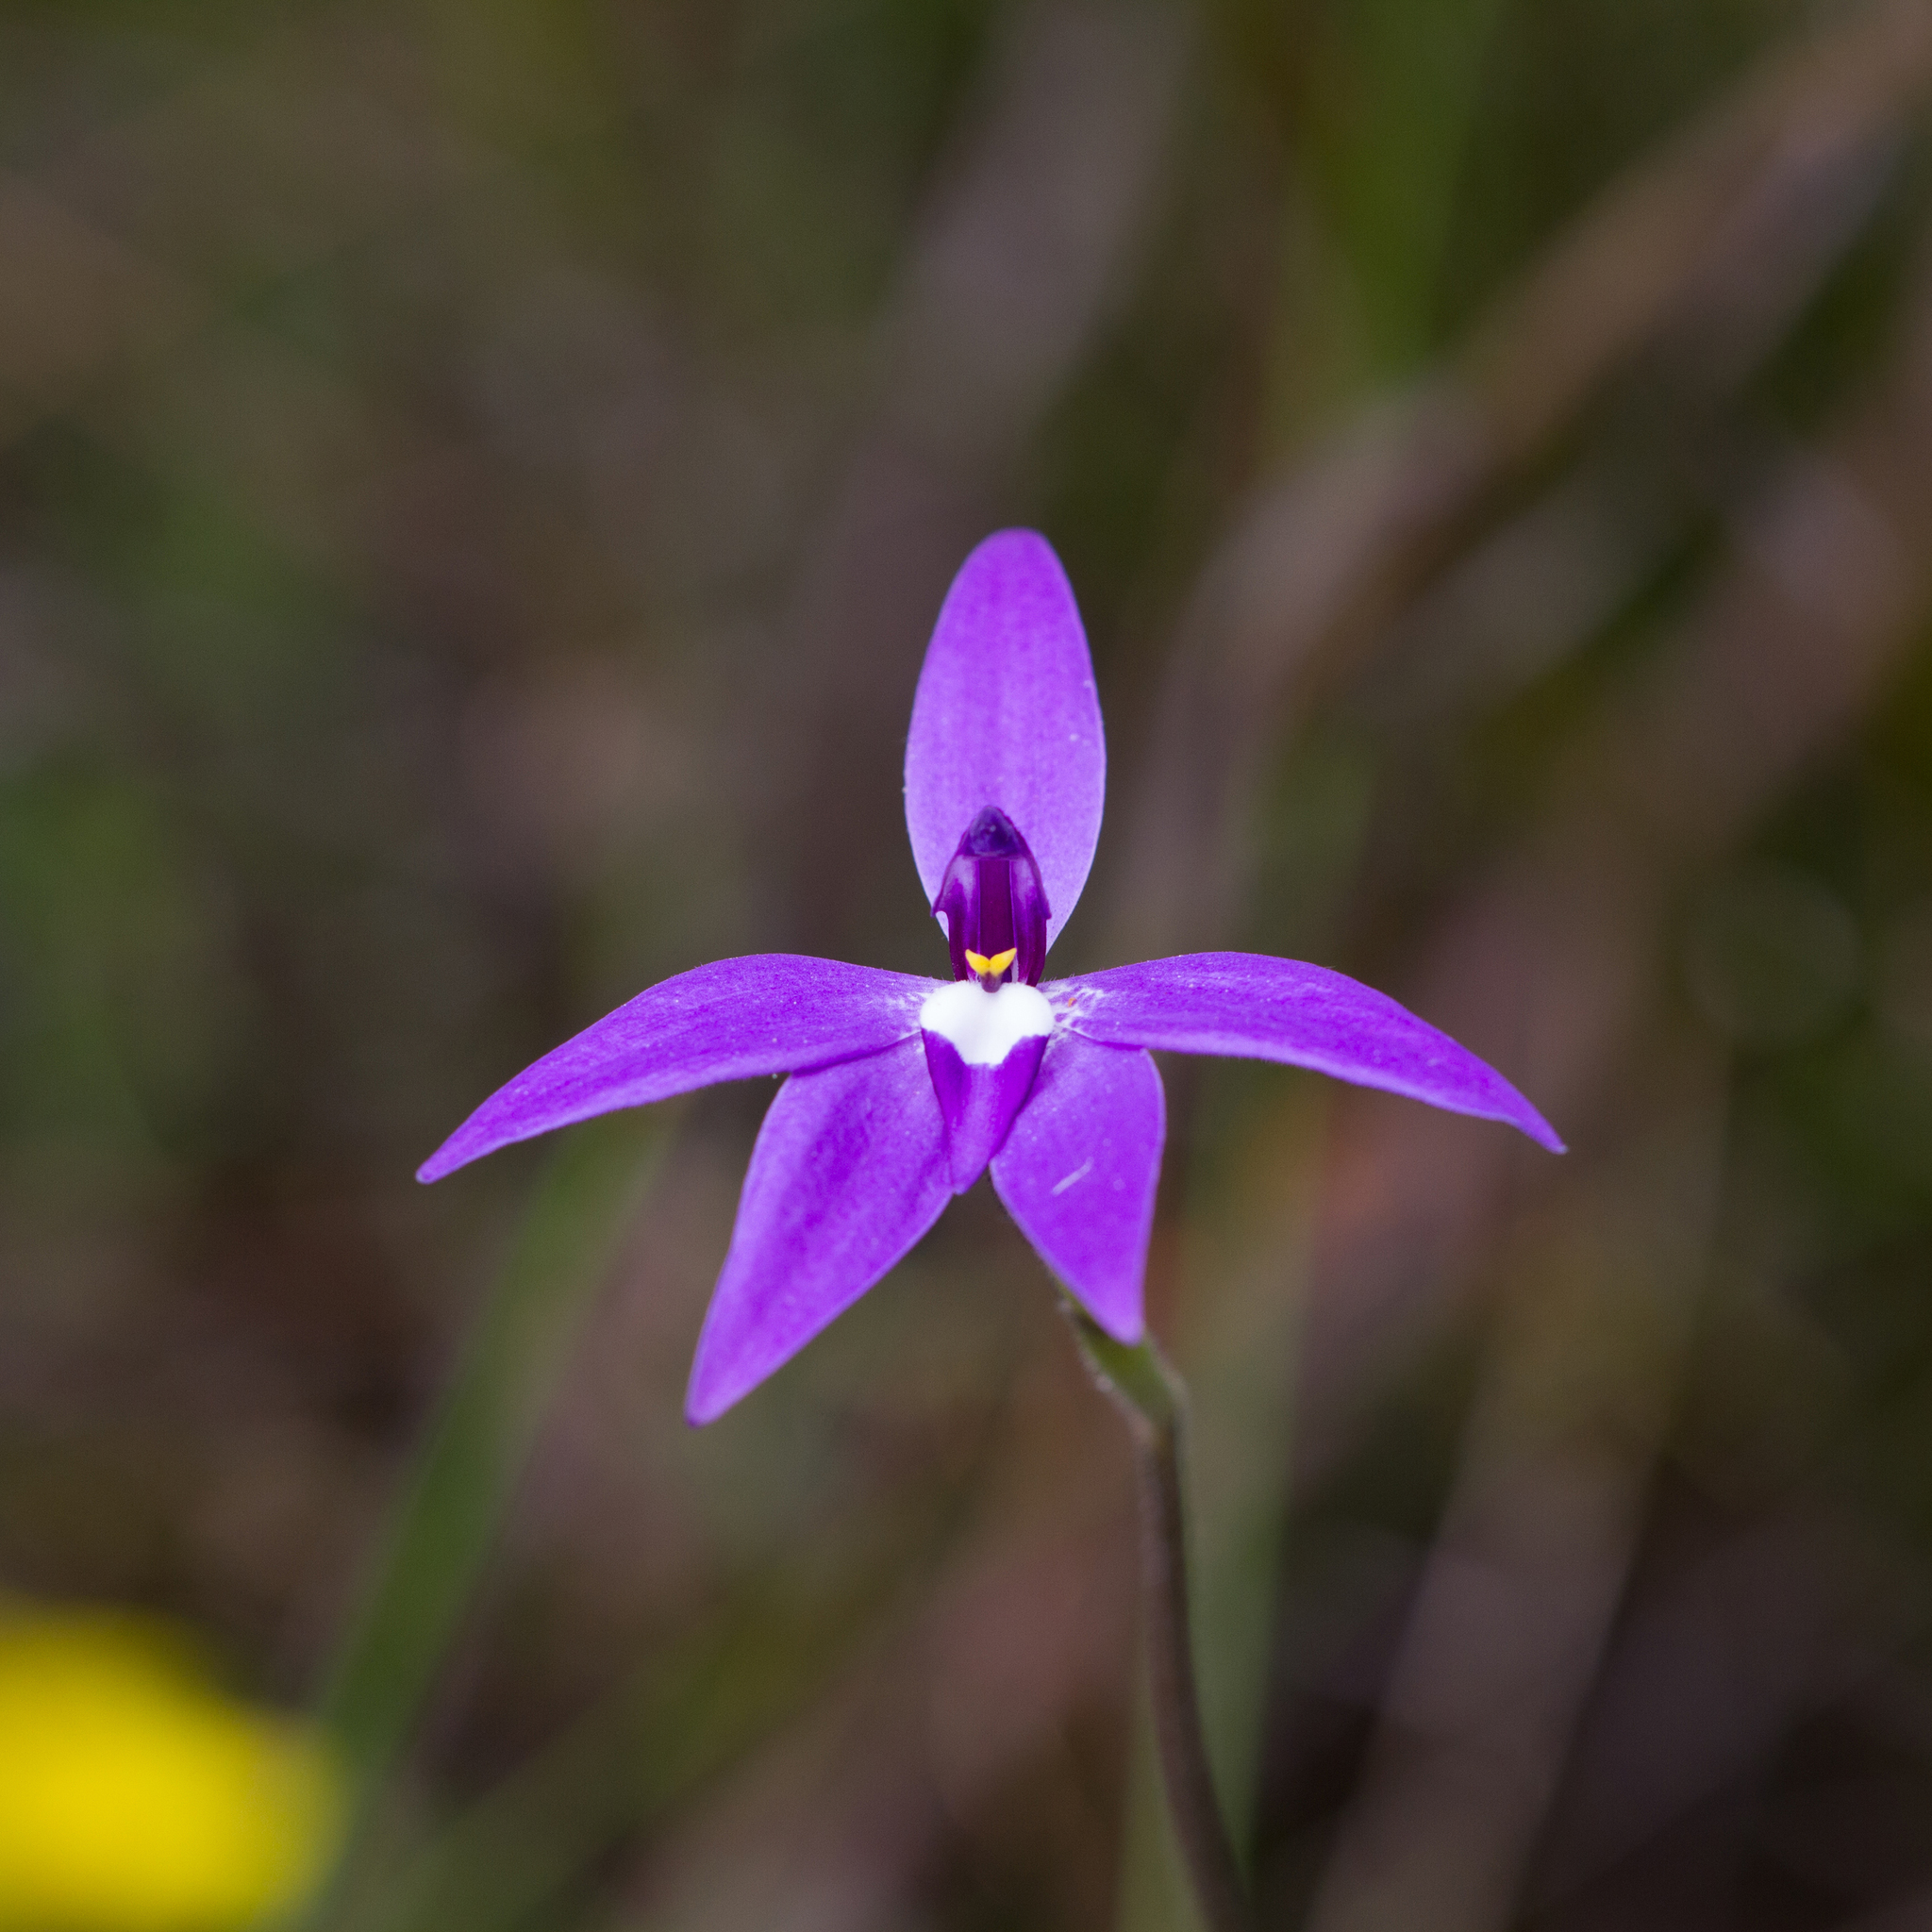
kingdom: Plantae
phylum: Tracheophyta
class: Liliopsida
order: Asparagales
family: Orchidaceae
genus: Caladenia
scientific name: Caladenia major
